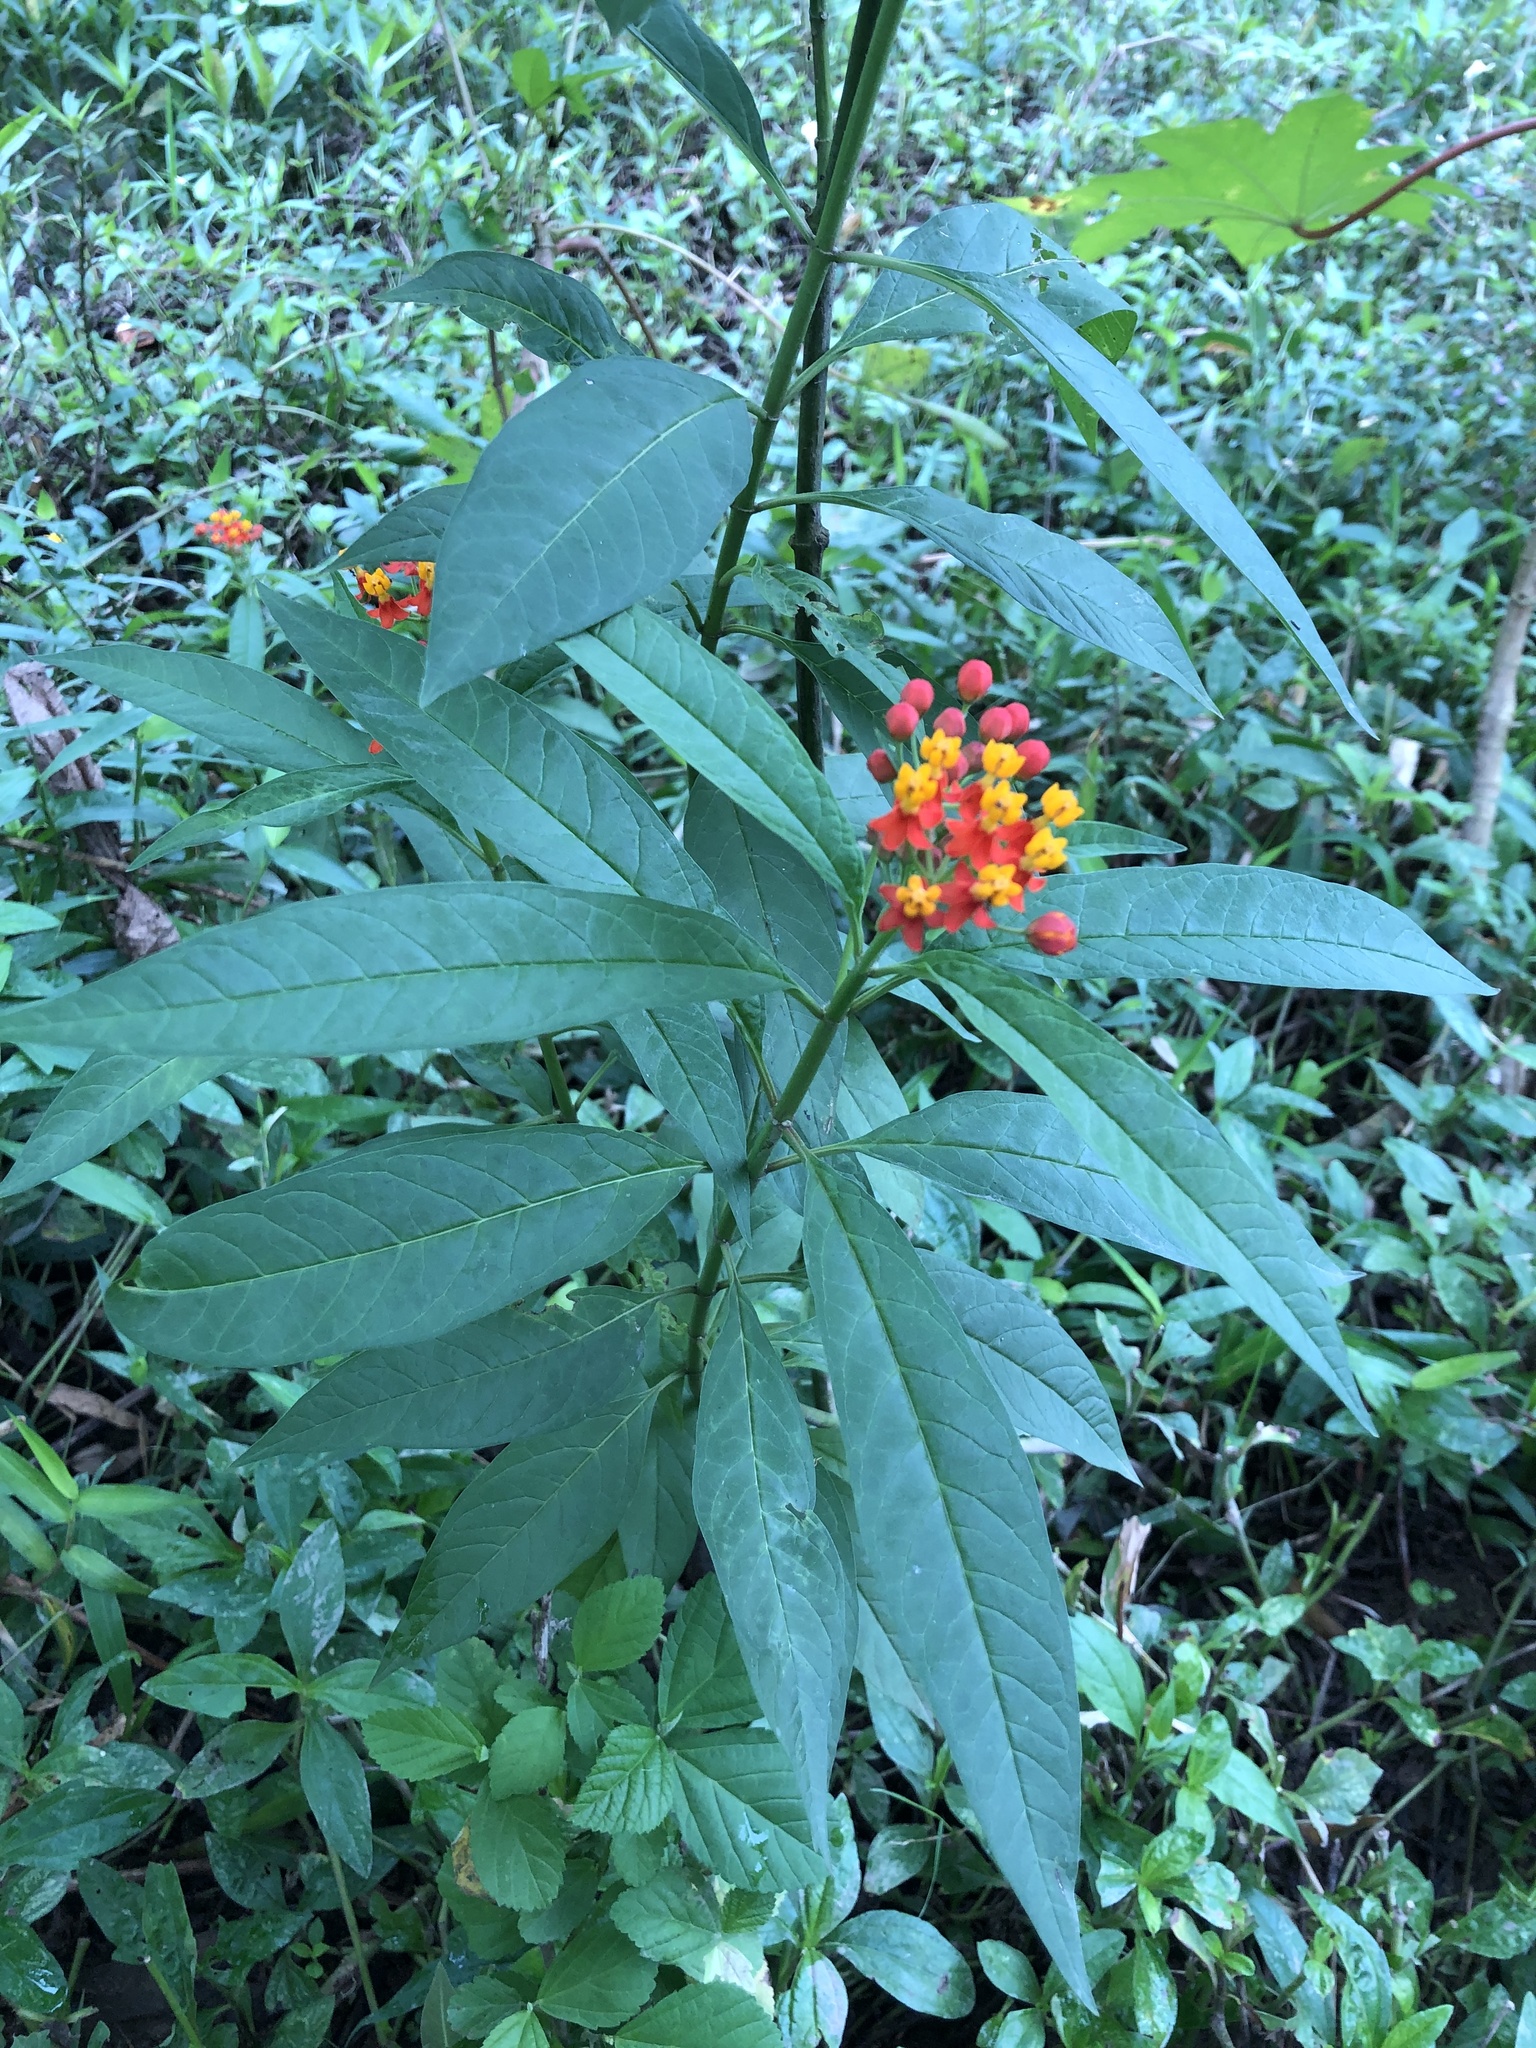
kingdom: Plantae
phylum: Tracheophyta
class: Magnoliopsida
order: Gentianales
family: Apocynaceae
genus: Asclepias
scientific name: Asclepias curassavica
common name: Bloodflower
